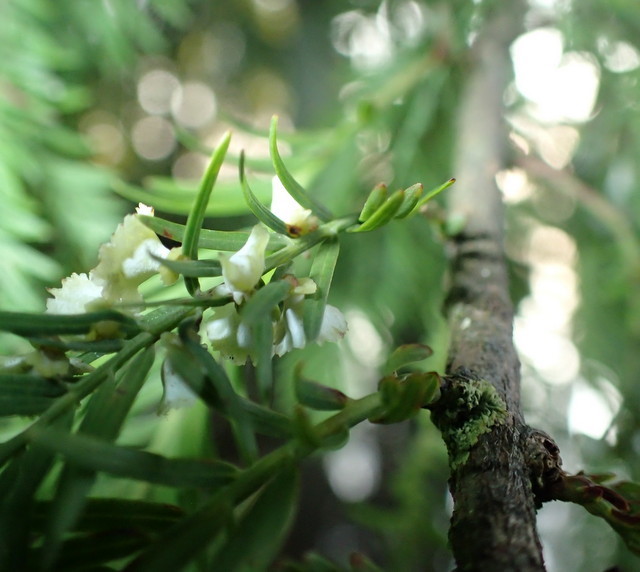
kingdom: Animalia
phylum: Arthropoda
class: Insecta
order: Diptera
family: Cecidomyiidae
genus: Taxodiomyia
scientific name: Taxodiomyia cupressi
